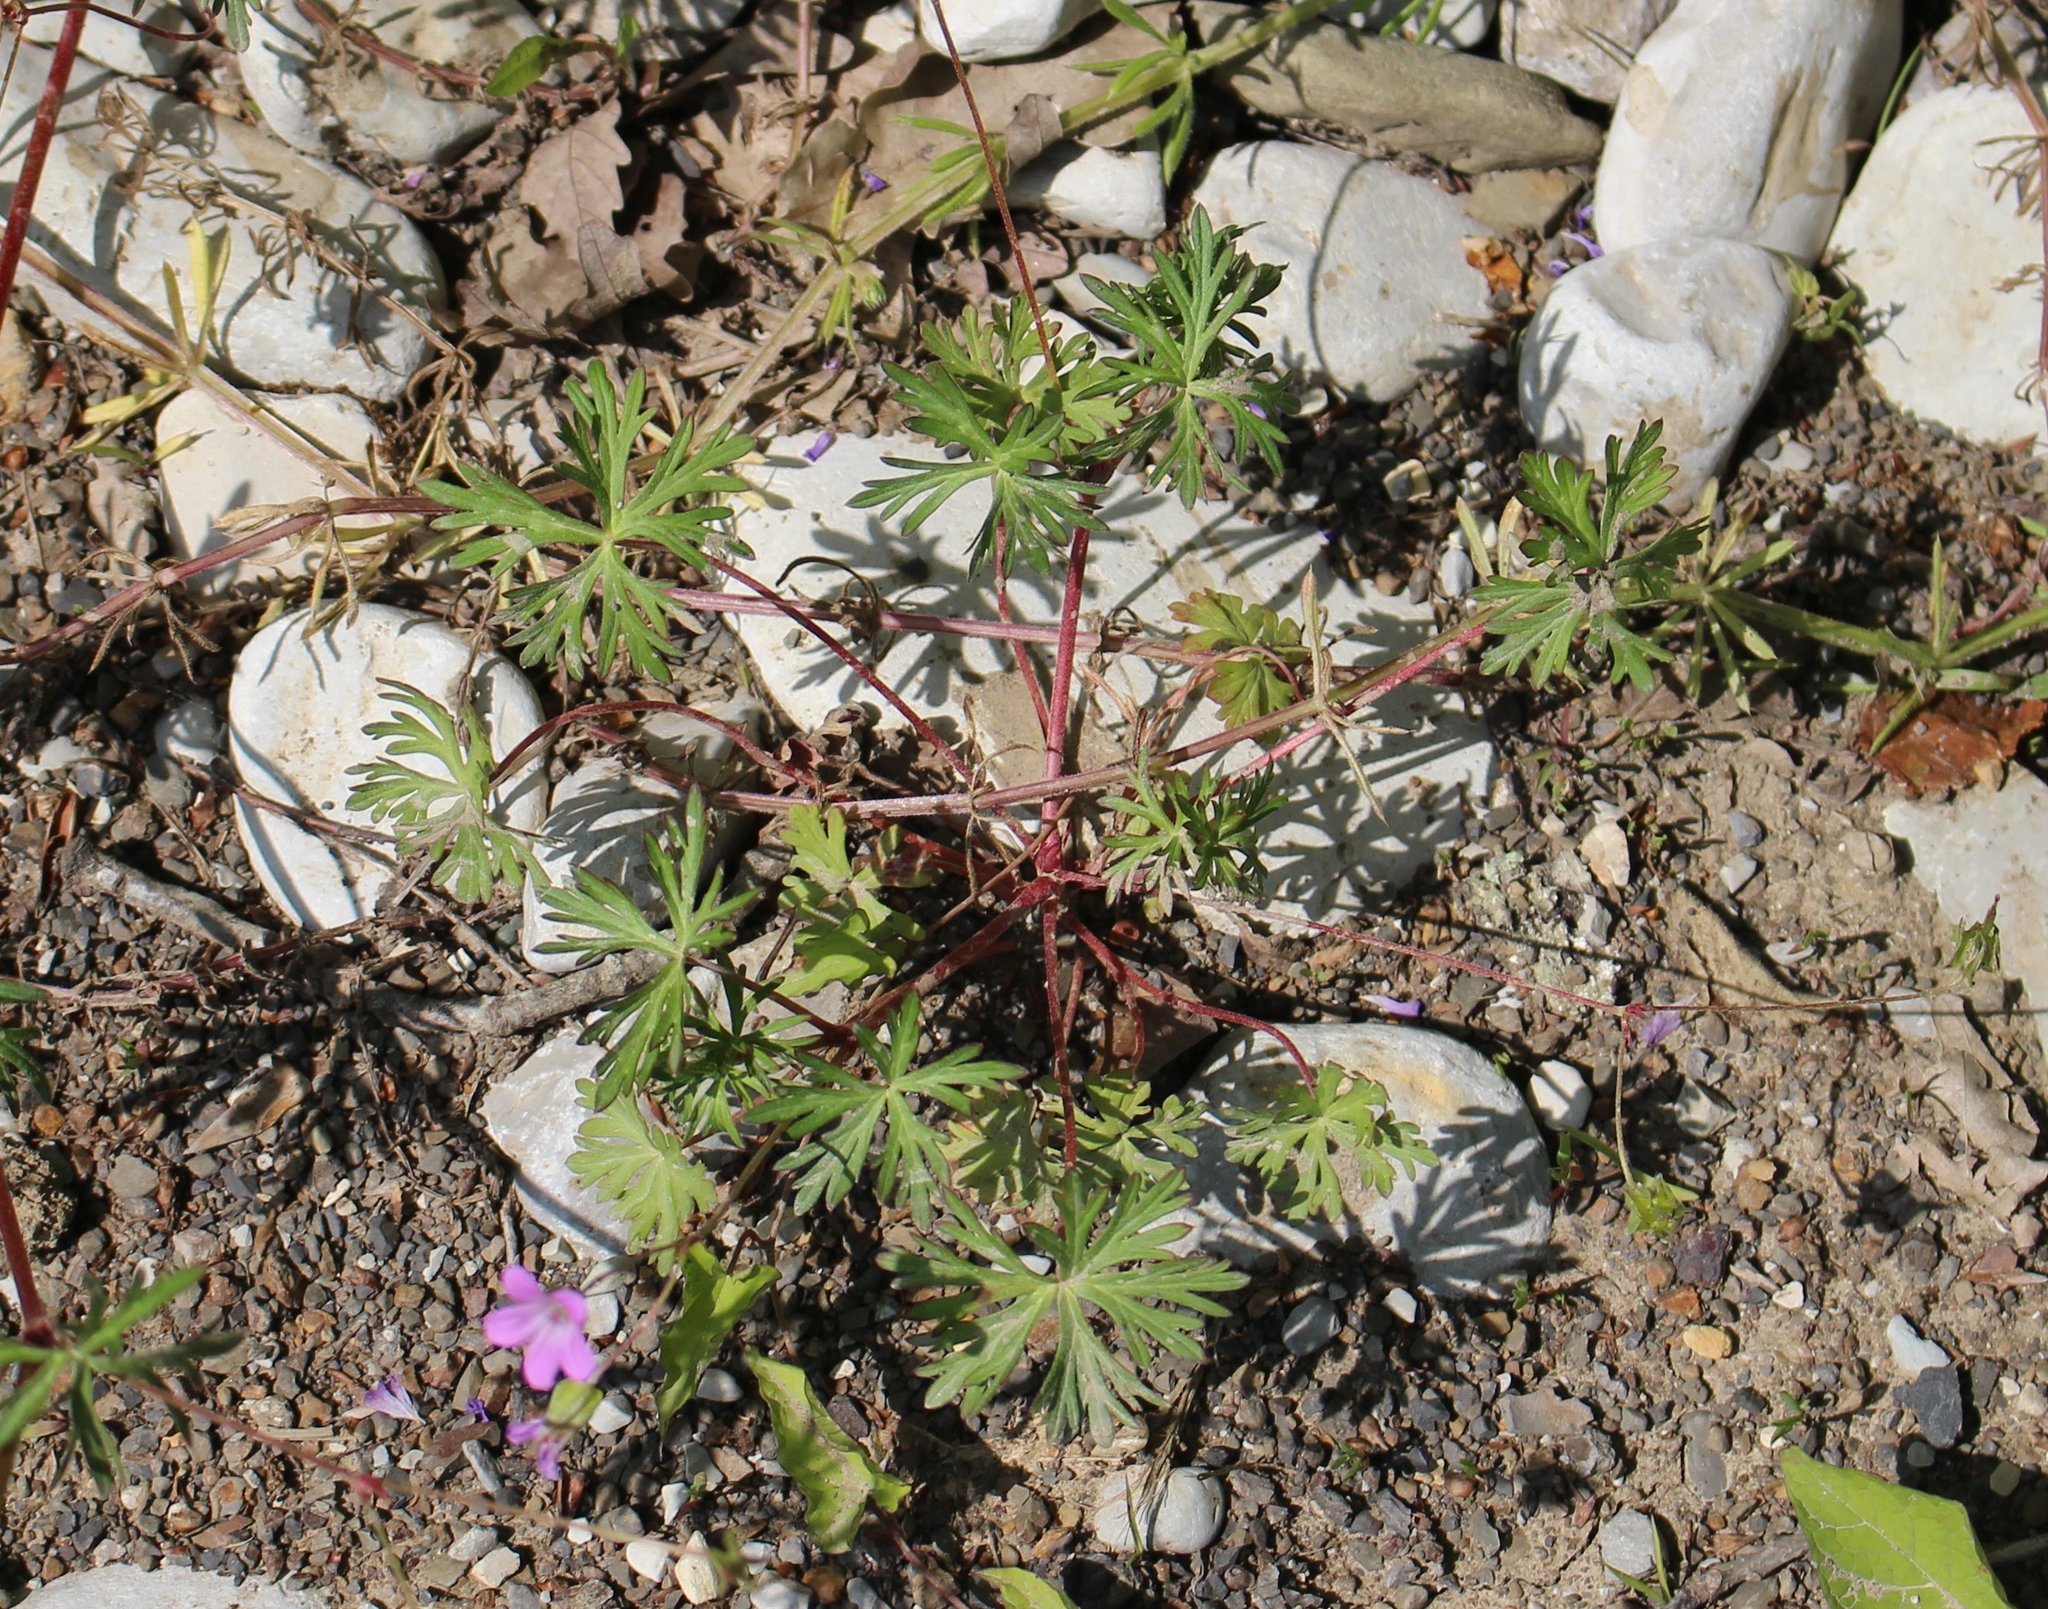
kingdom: Plantae
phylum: Tracheophyta
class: Magnoliopsida
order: Geraniales
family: Geraniaceae
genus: Geranium
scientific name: Geranium dissectum
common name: Cut-leaved crane's-bill
